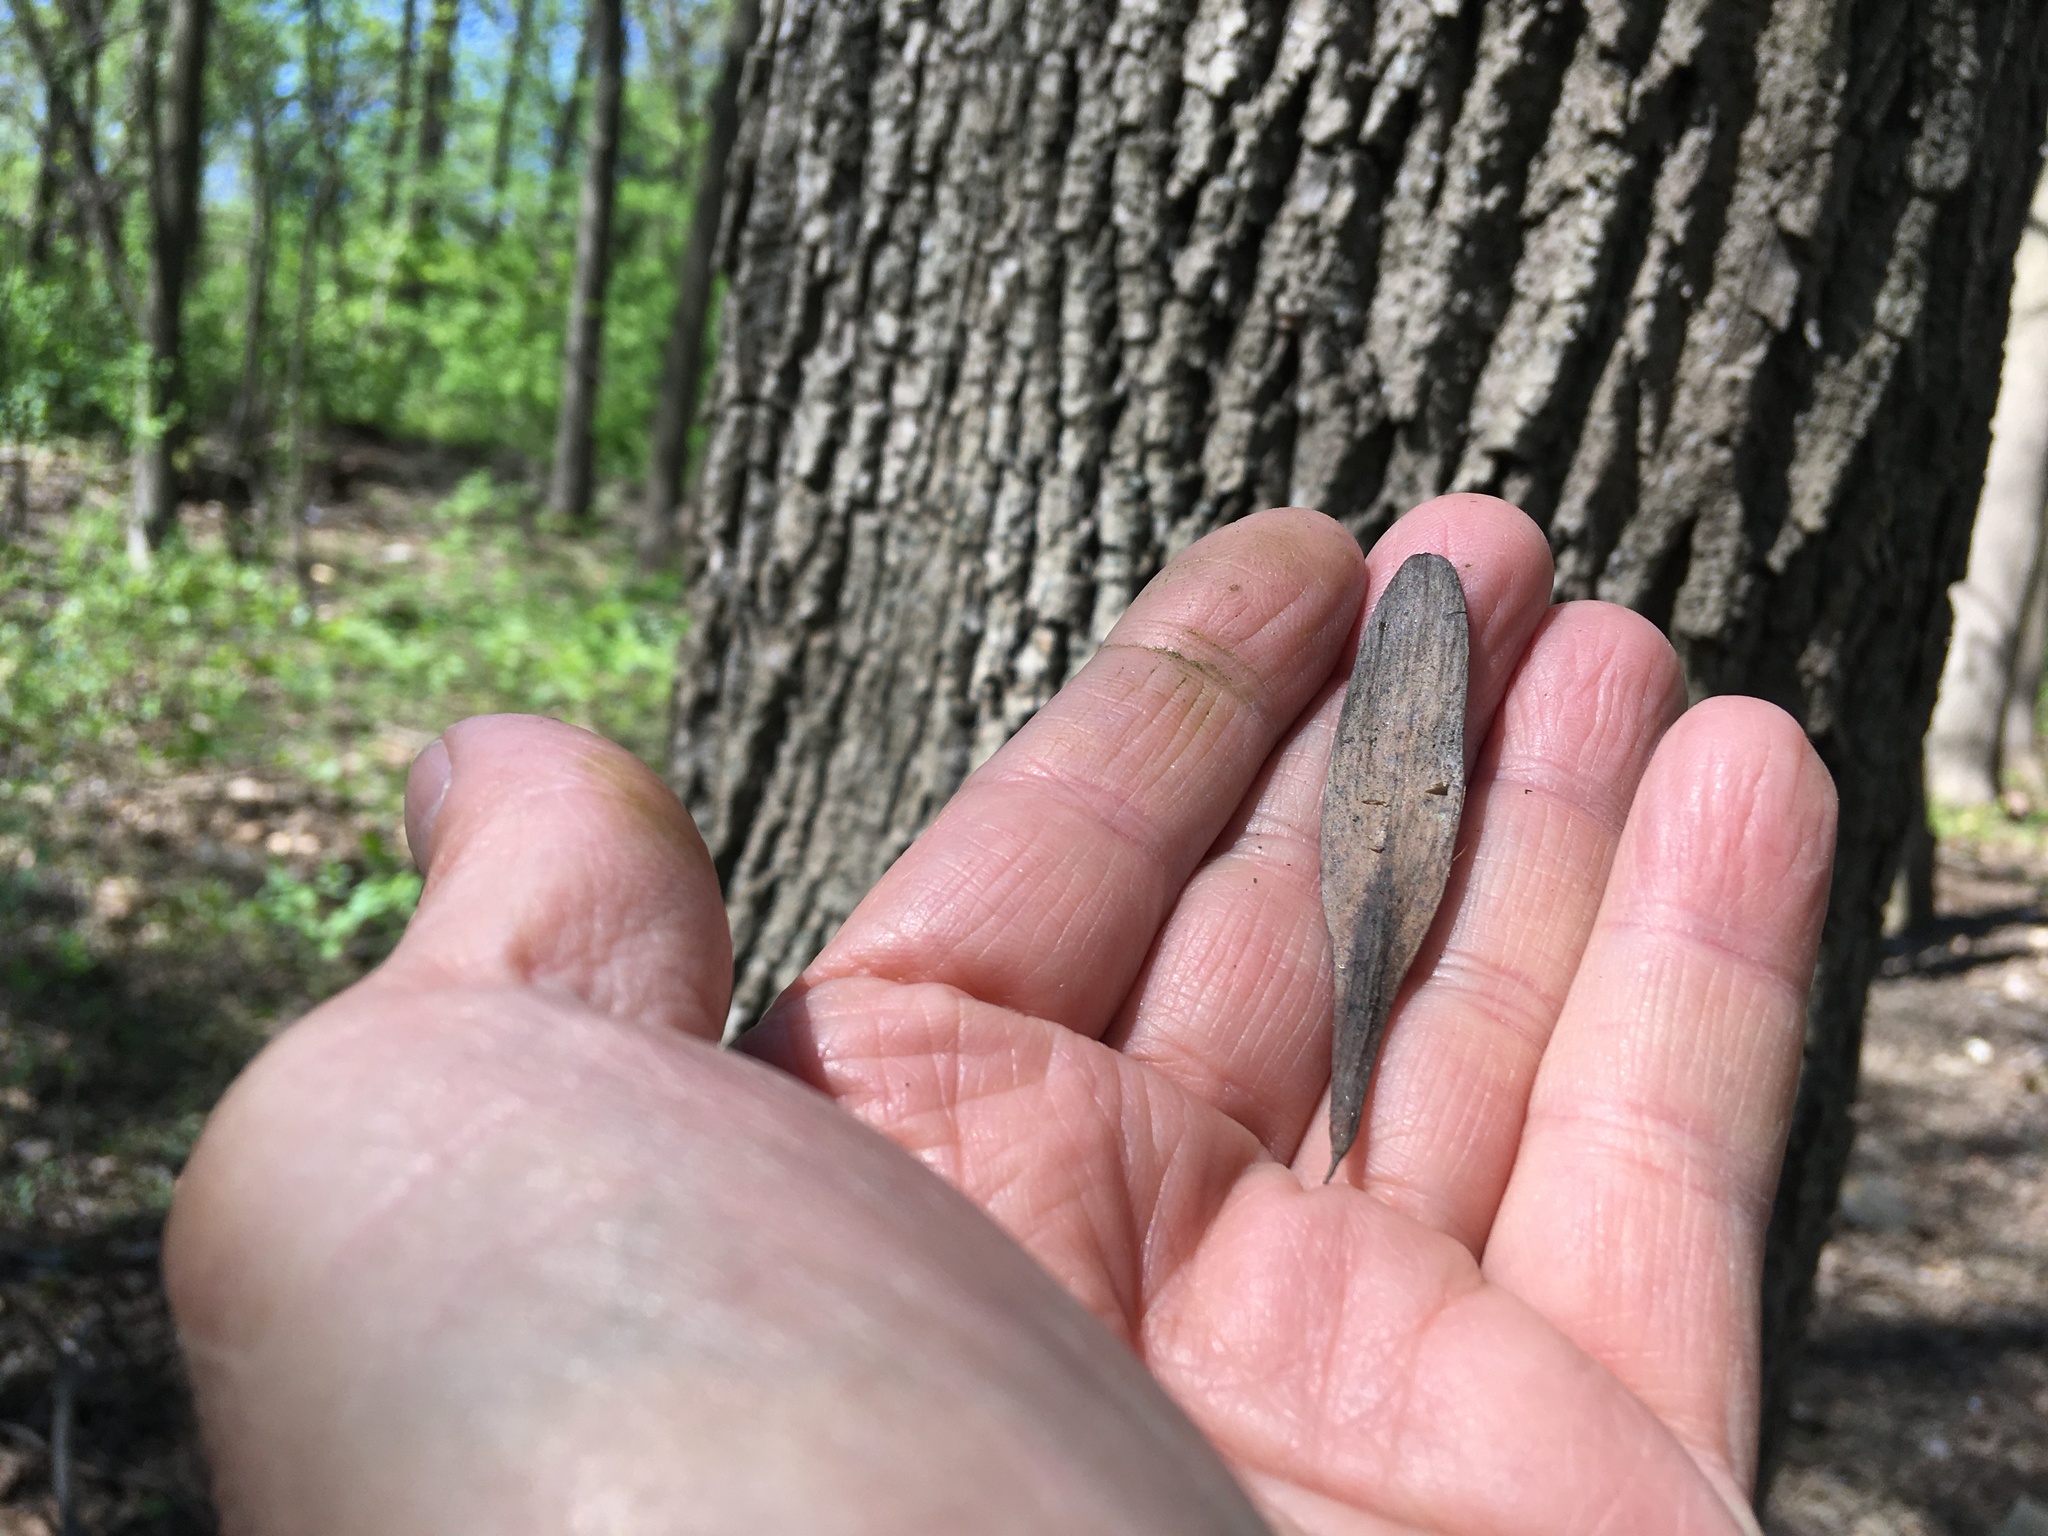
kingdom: Plantae
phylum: Tracheophyta
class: Magnoliopsida
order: Lamiales
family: Oleaceae
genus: Fraxinus
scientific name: Fraxinus profunda
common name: Pumpkin ash
